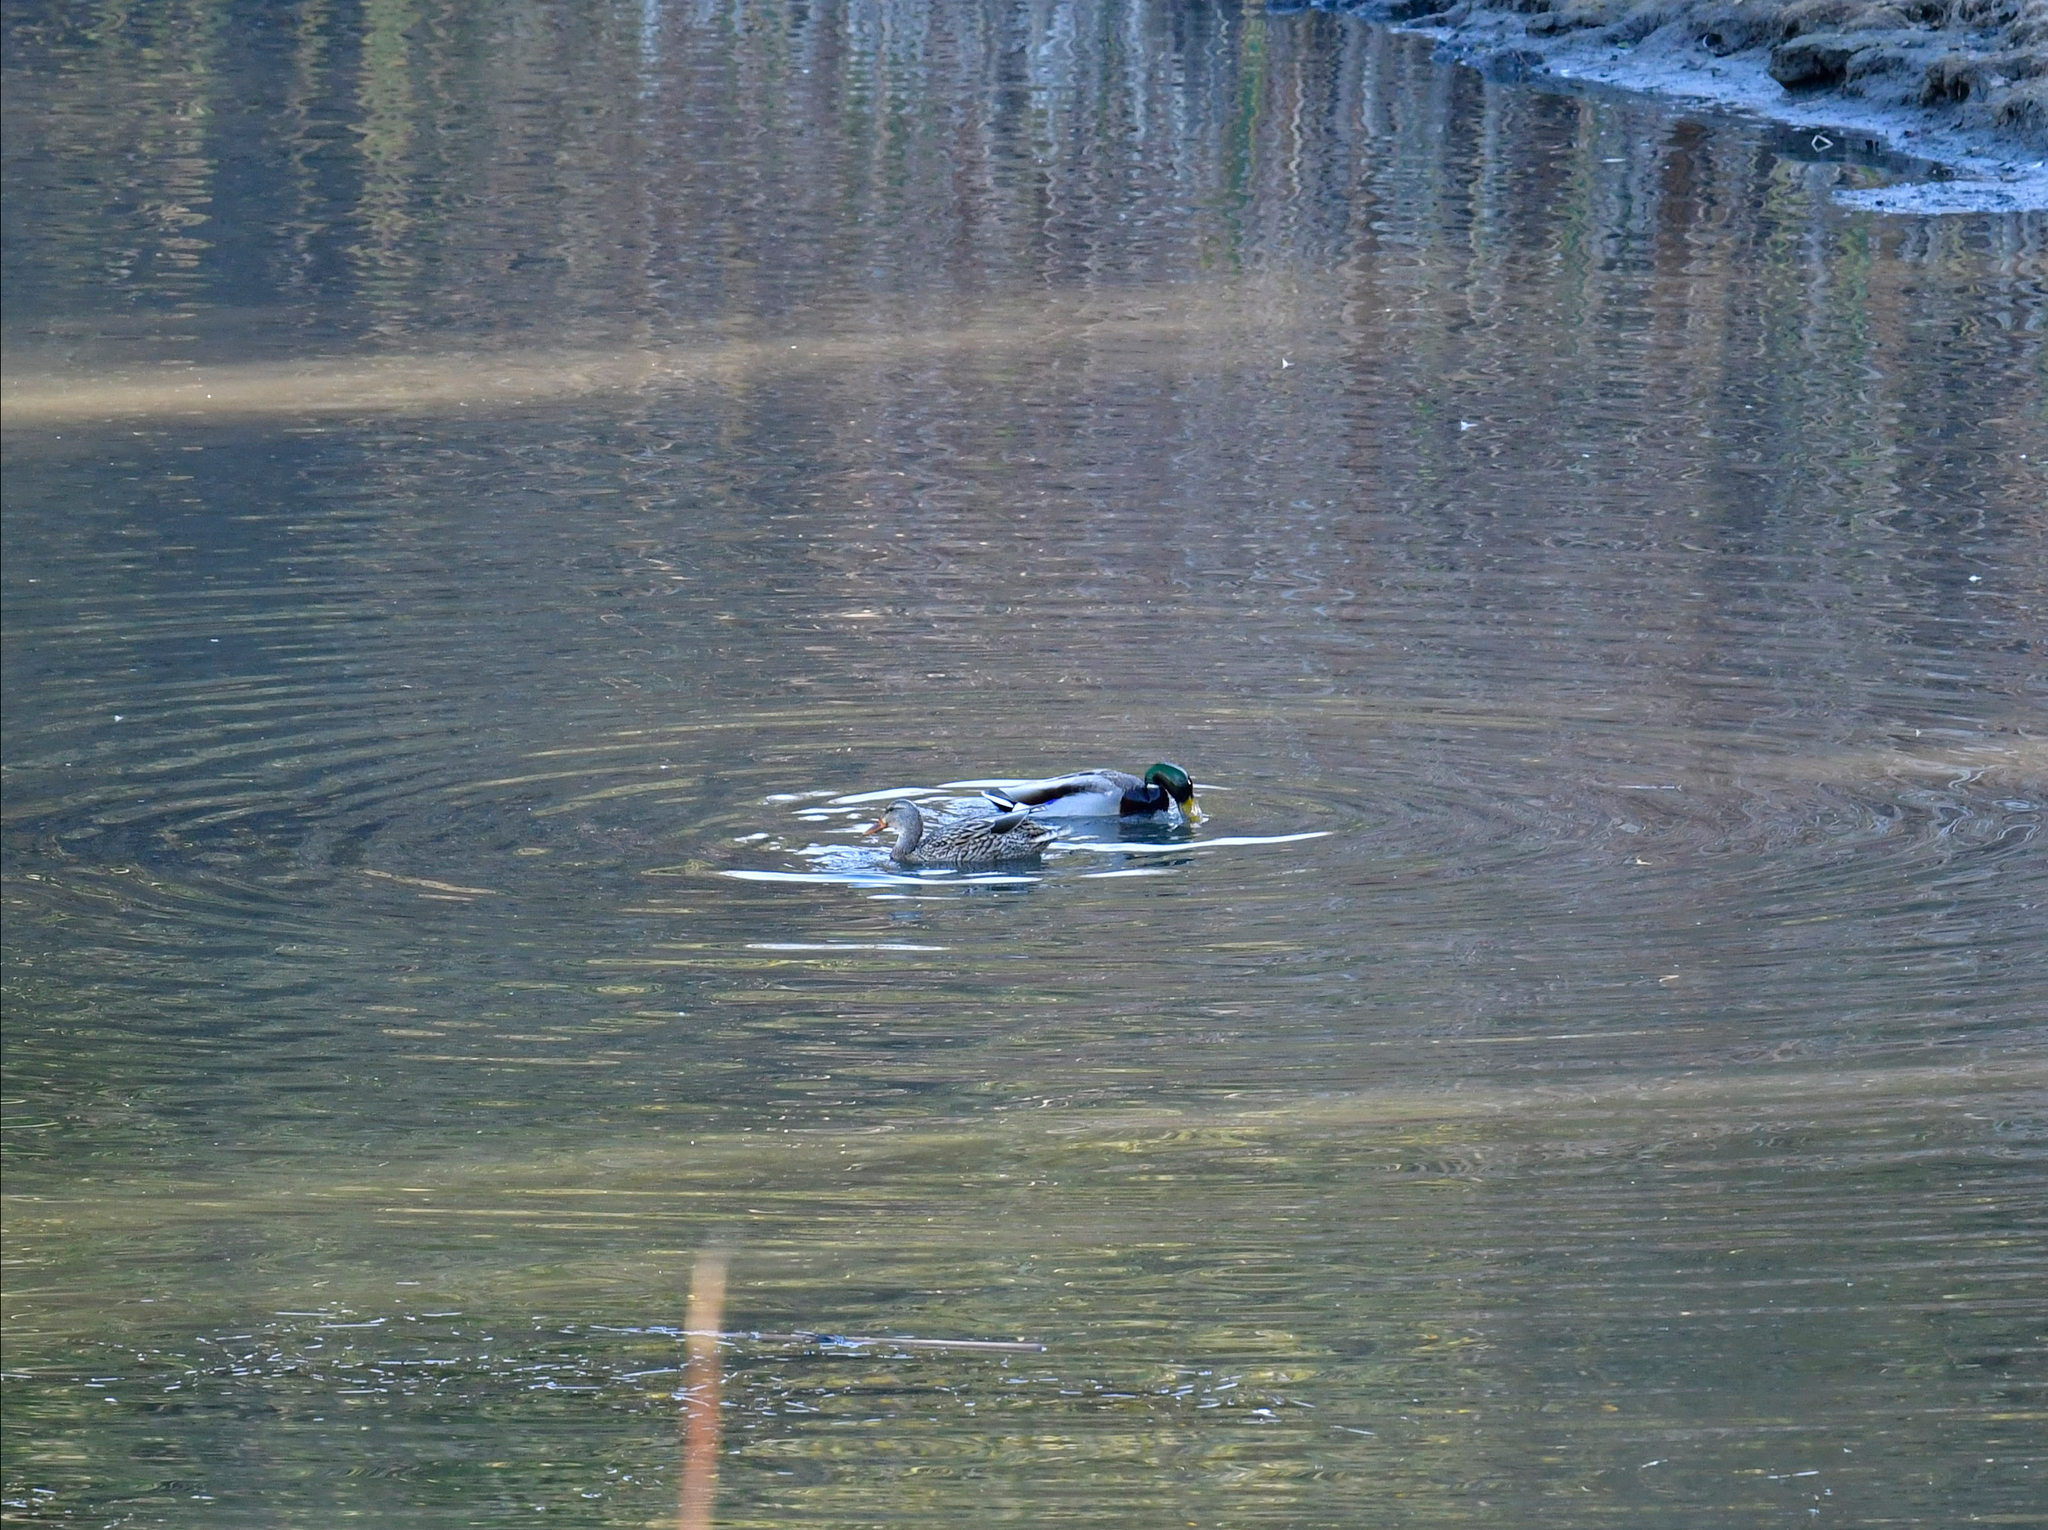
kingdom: Animalia
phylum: Chordata
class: Aves
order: Anseriformes
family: Anatidae
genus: Anas
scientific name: Anas platyrhynchos
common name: Mallard
